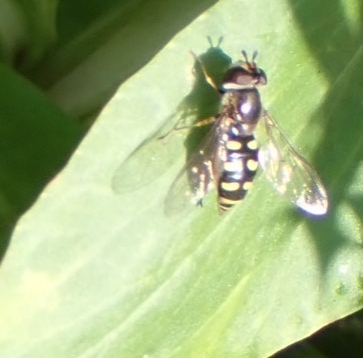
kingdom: Animalia
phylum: Arthropoda
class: Insecta
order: Diptera
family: Syrphidae
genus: Eupeodes
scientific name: Eupeodes
